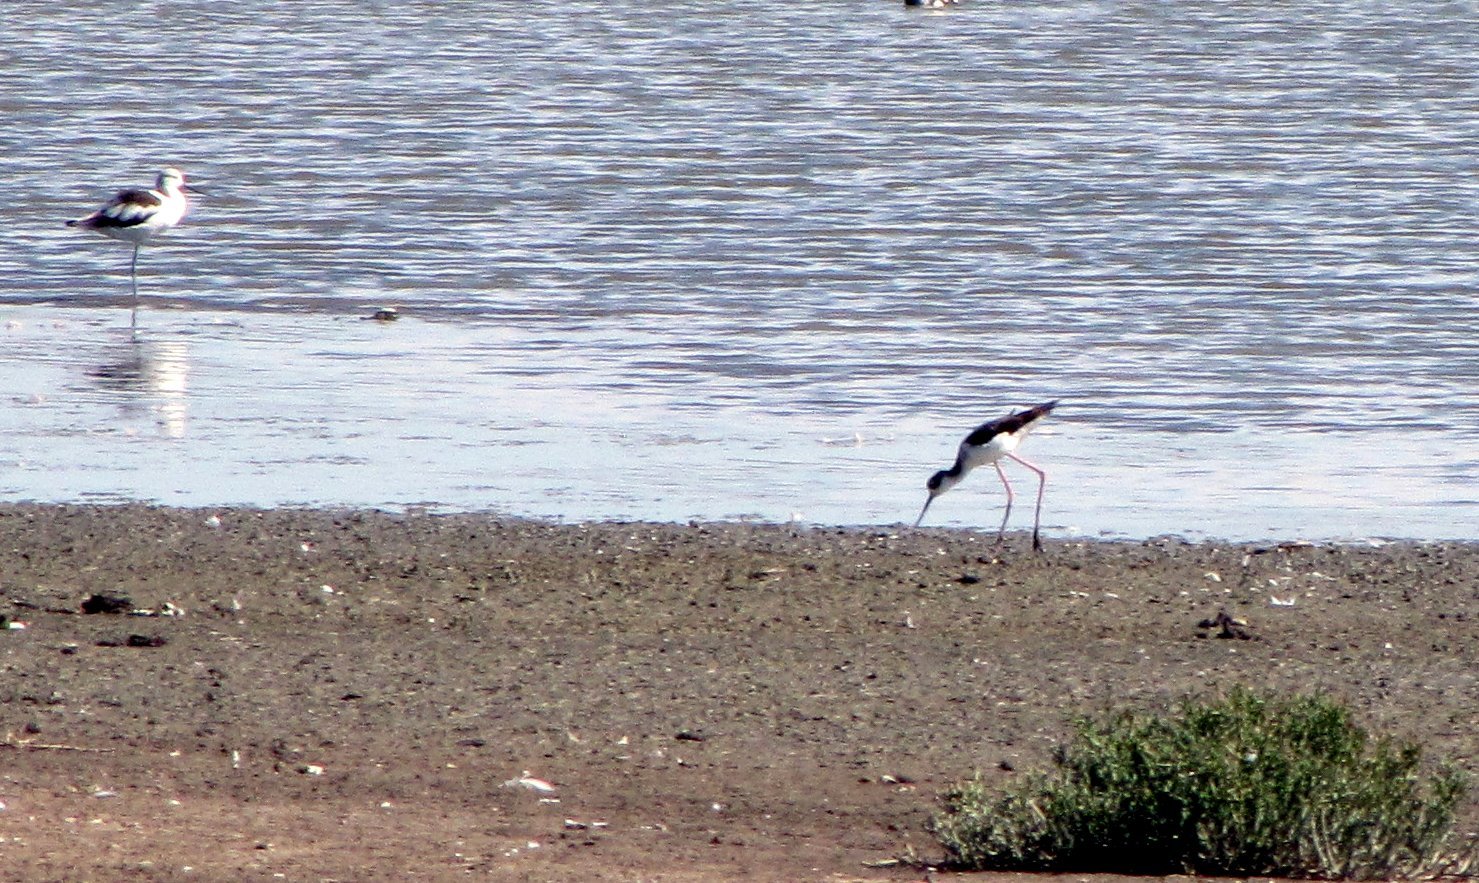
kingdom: Animalia
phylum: Chordata
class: Aves
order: Charadriiformes
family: Recurvirostridae
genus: Himantopus
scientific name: Himantopus mexicanus
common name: Black-necked stilt
